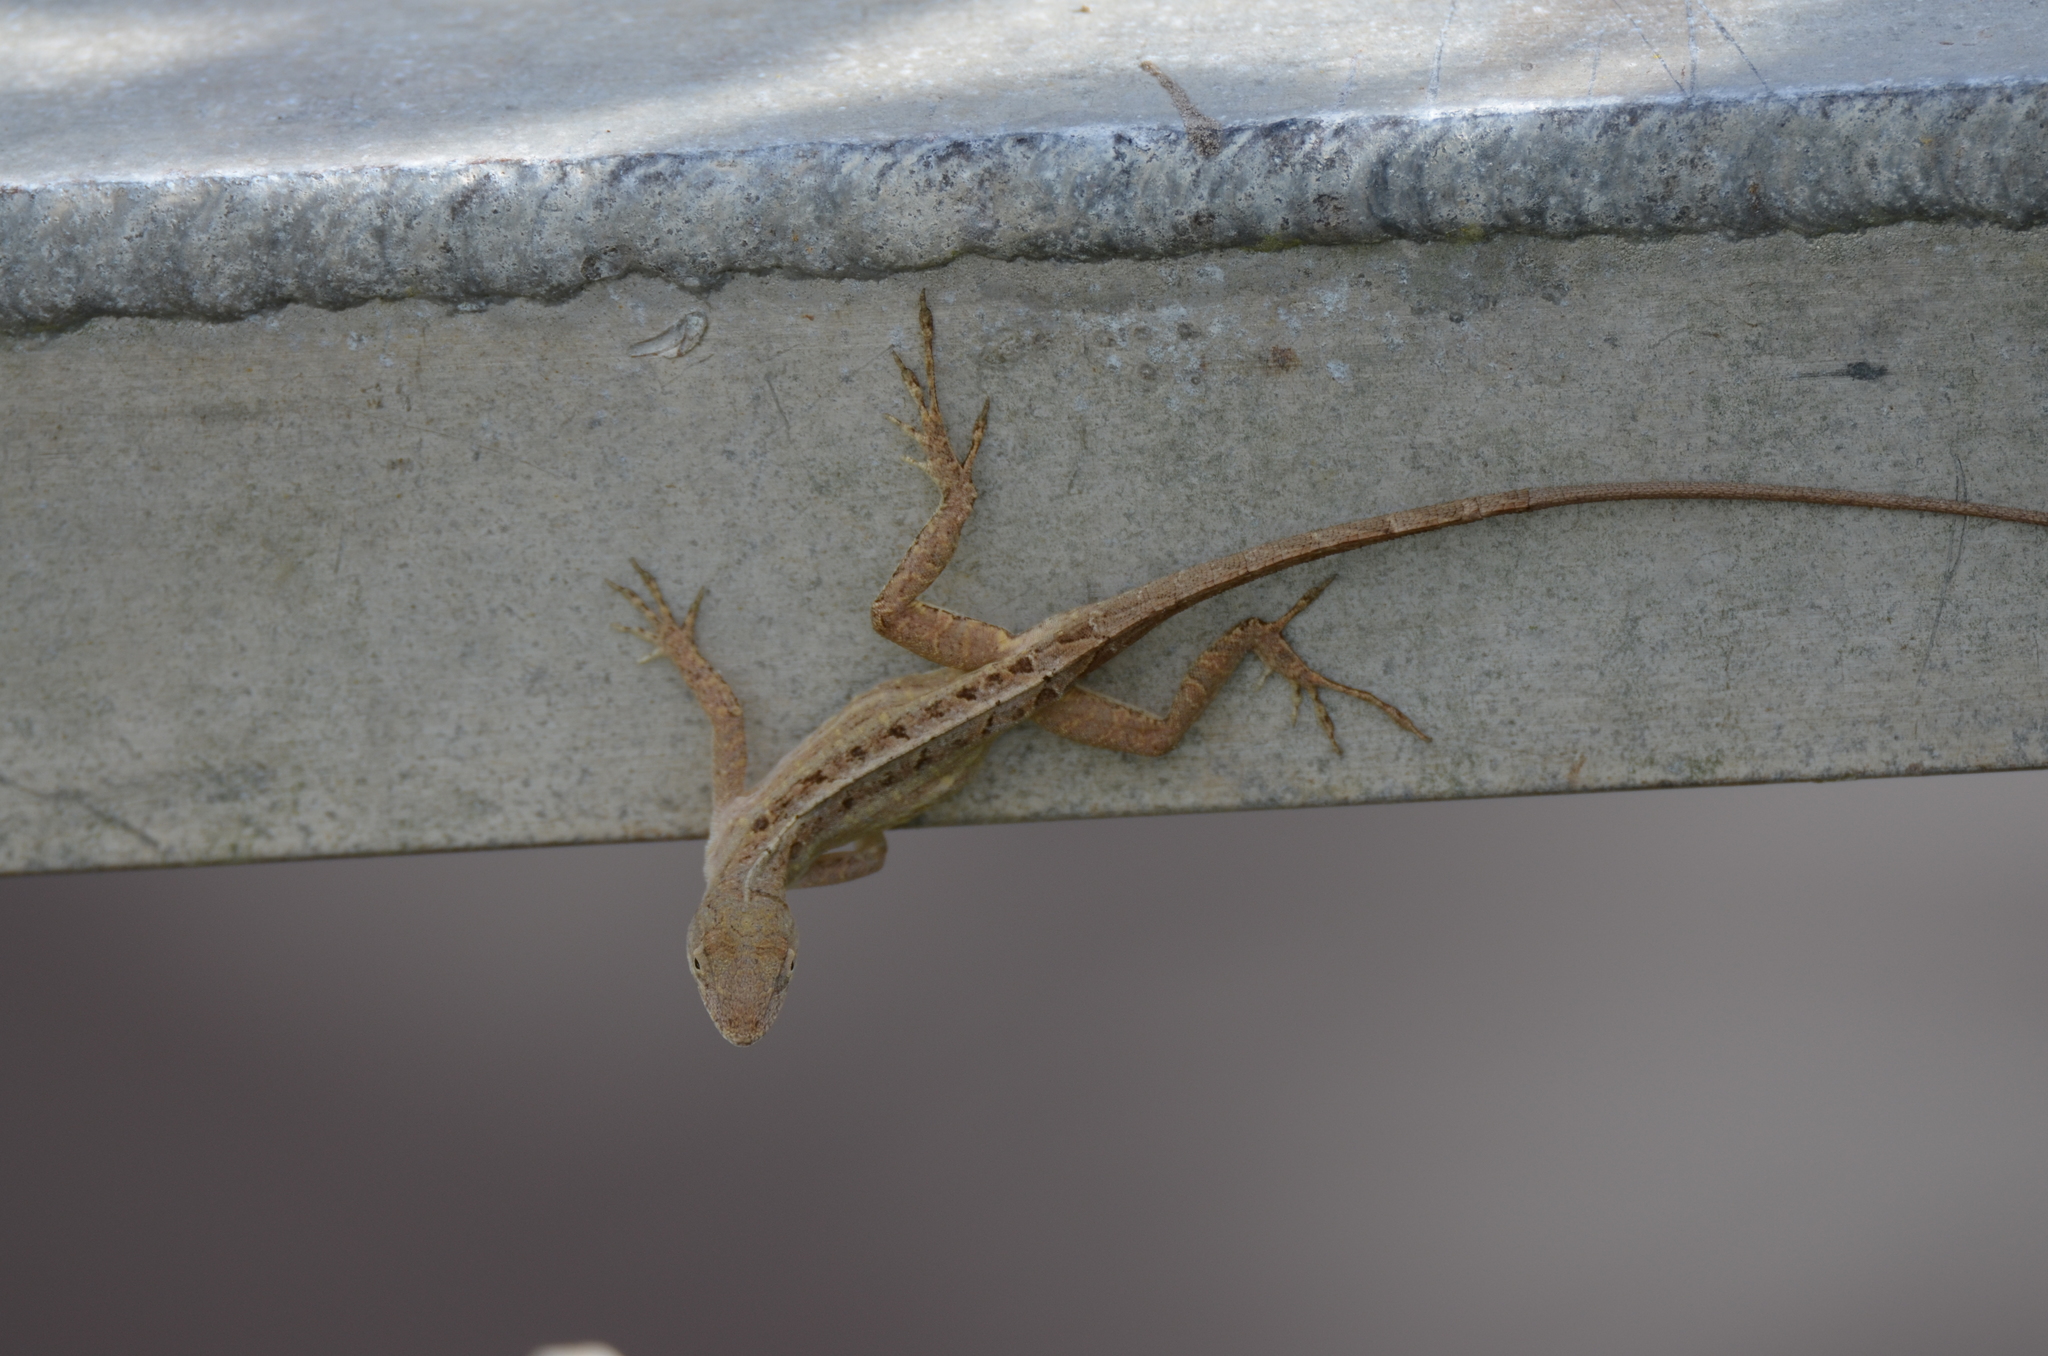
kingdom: Animalia
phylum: Chordata
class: Squamata
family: Dactyloidae
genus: Anolis
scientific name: Anolis sagrei
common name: Brown anole
